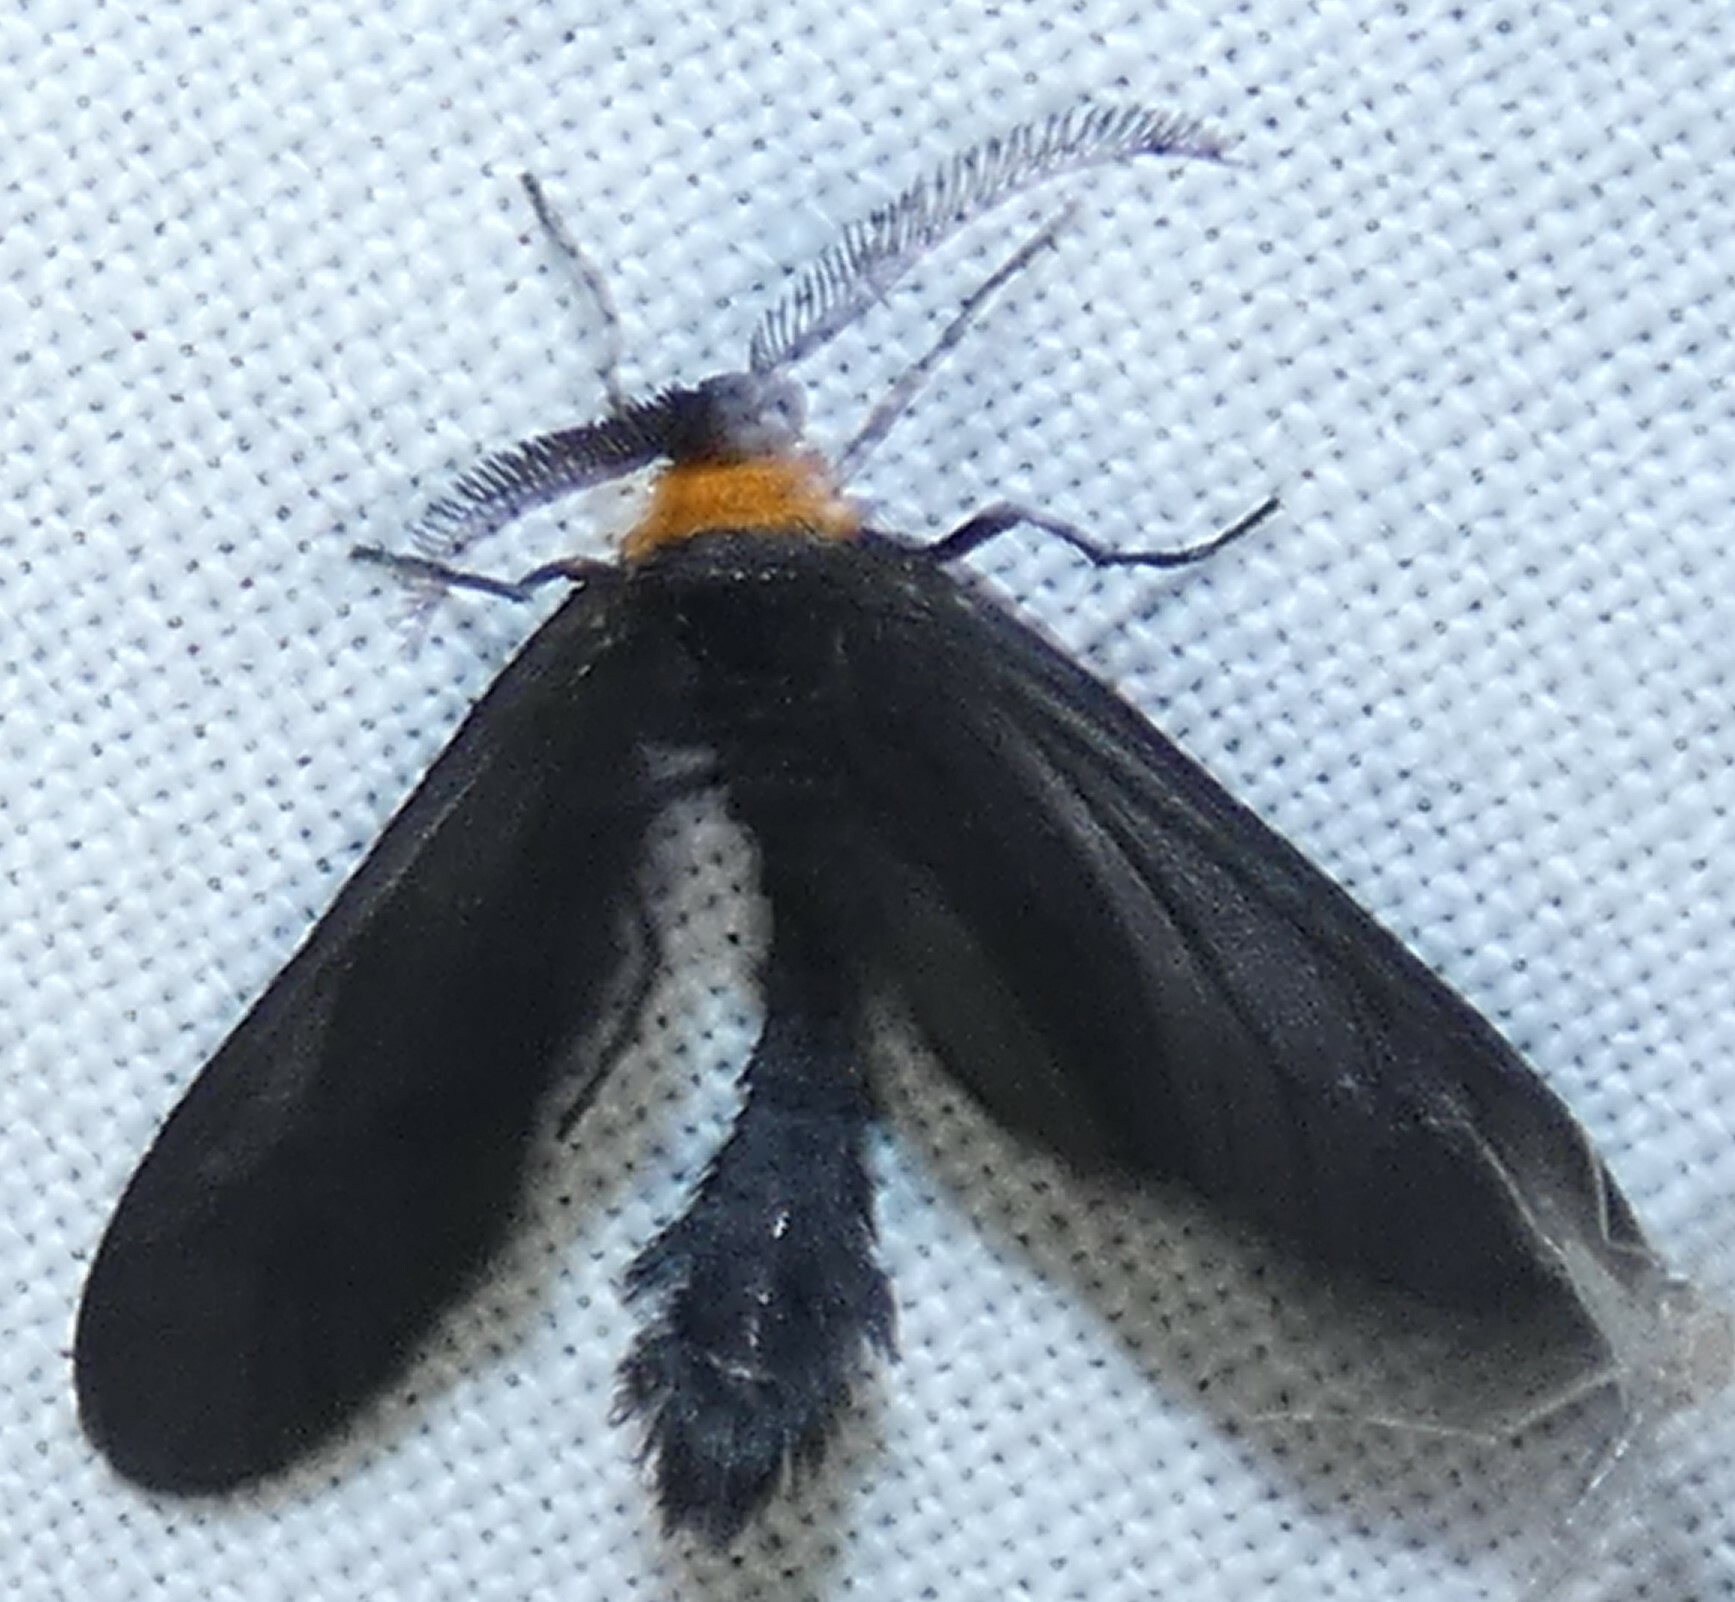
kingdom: Animalia
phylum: Arthropoda
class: Insecta
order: Lepidoptera
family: Zygaenidae
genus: Harrisina
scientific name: Harrisina americana
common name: Grapeleaf skeletonizer moth
